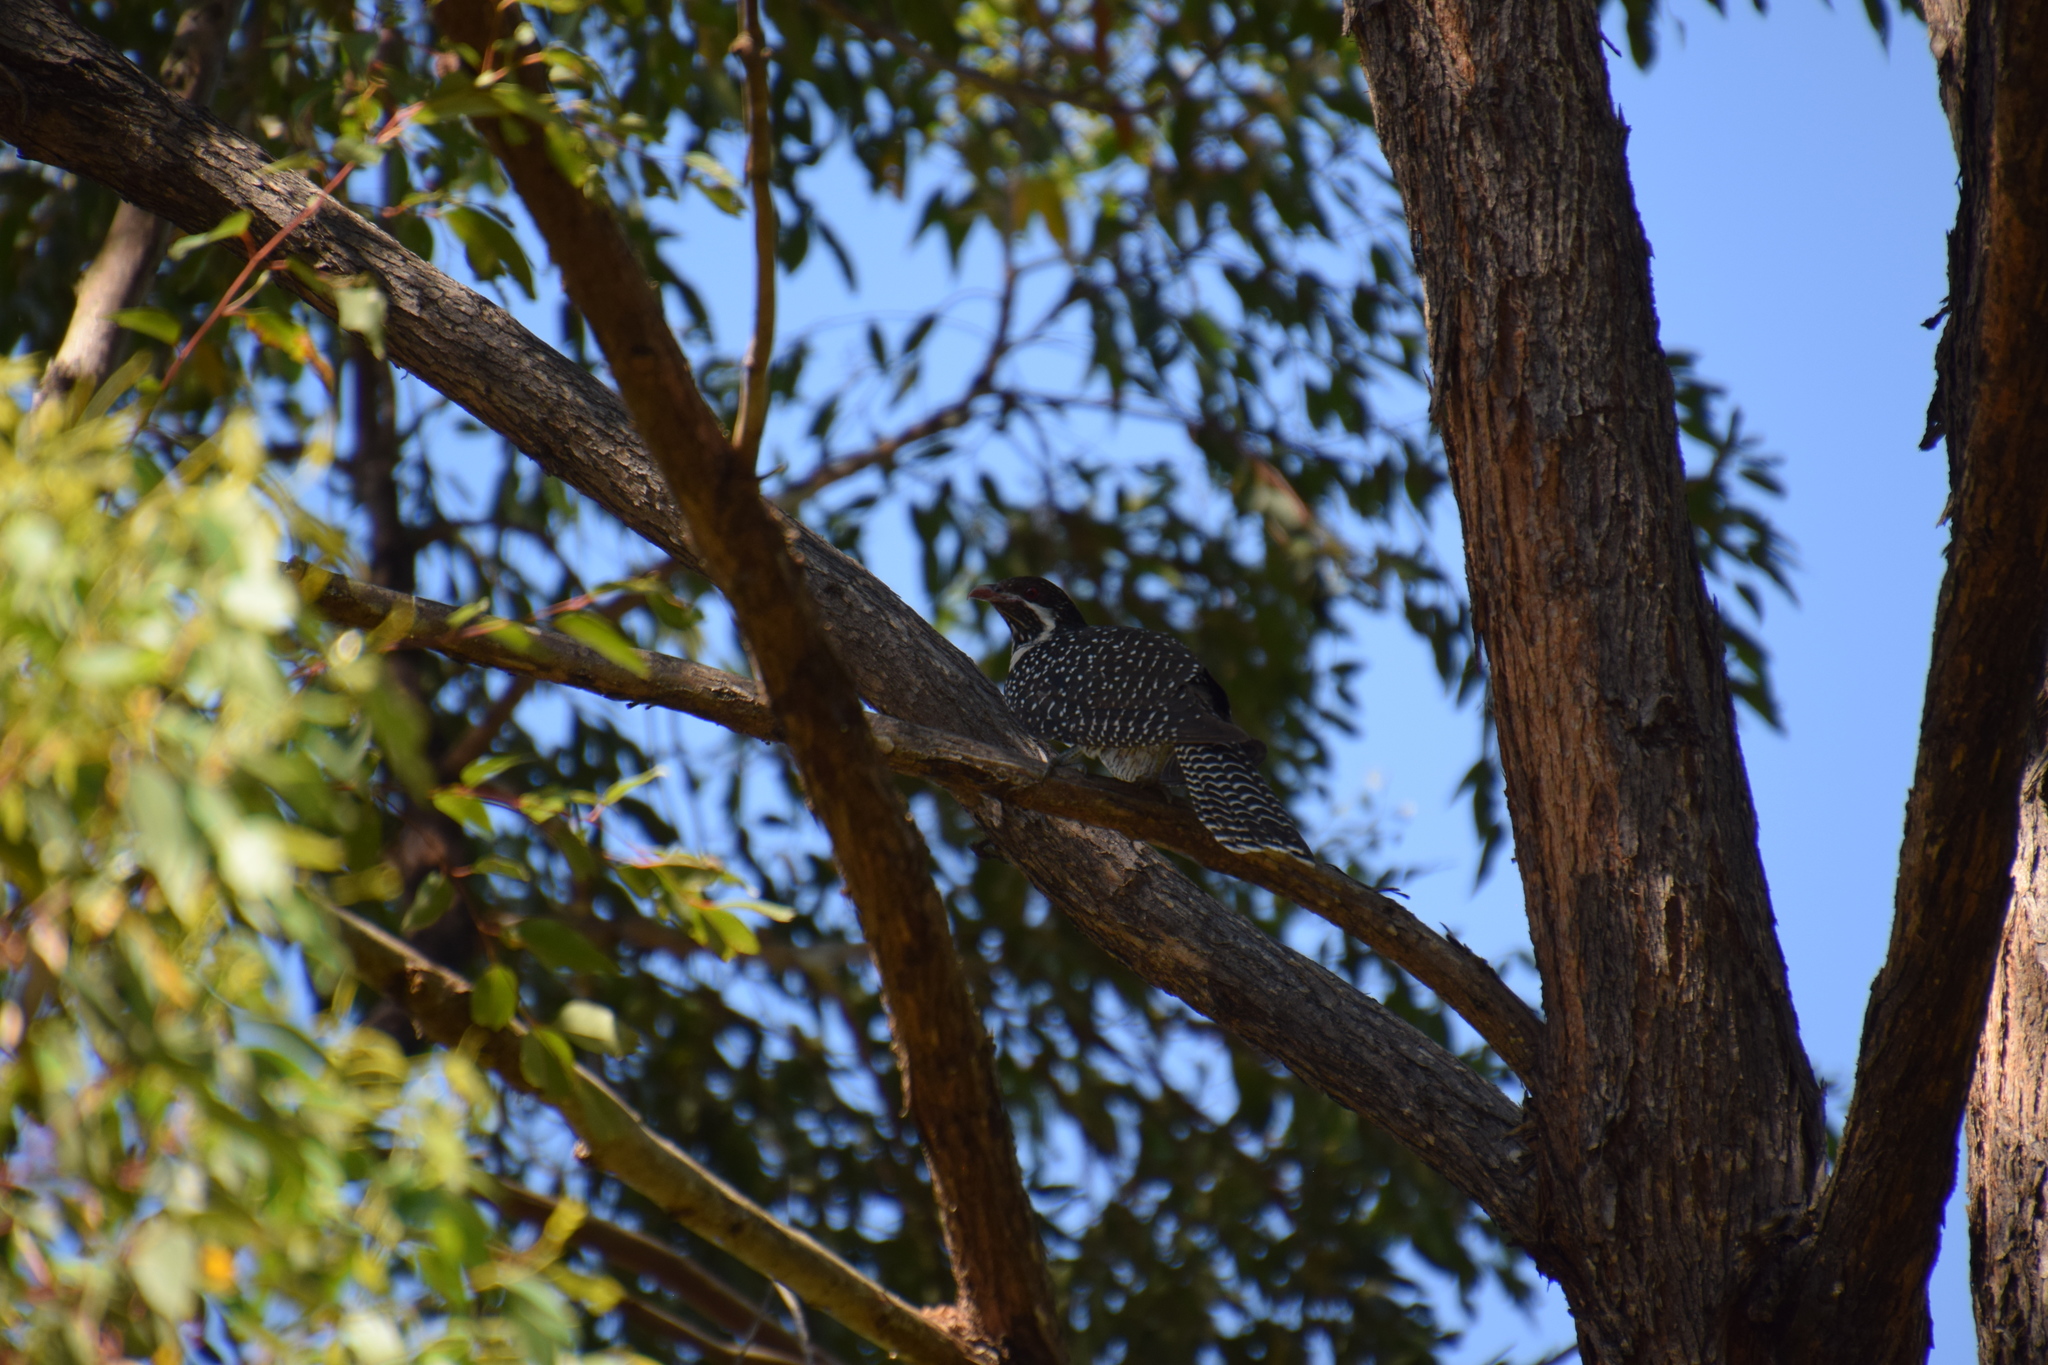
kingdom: Animalia
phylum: Chordata
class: Aves
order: Cuculiformes
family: Cuculidae
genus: Eudynamys
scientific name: Eudynamys orientalis
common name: Pacific koel
